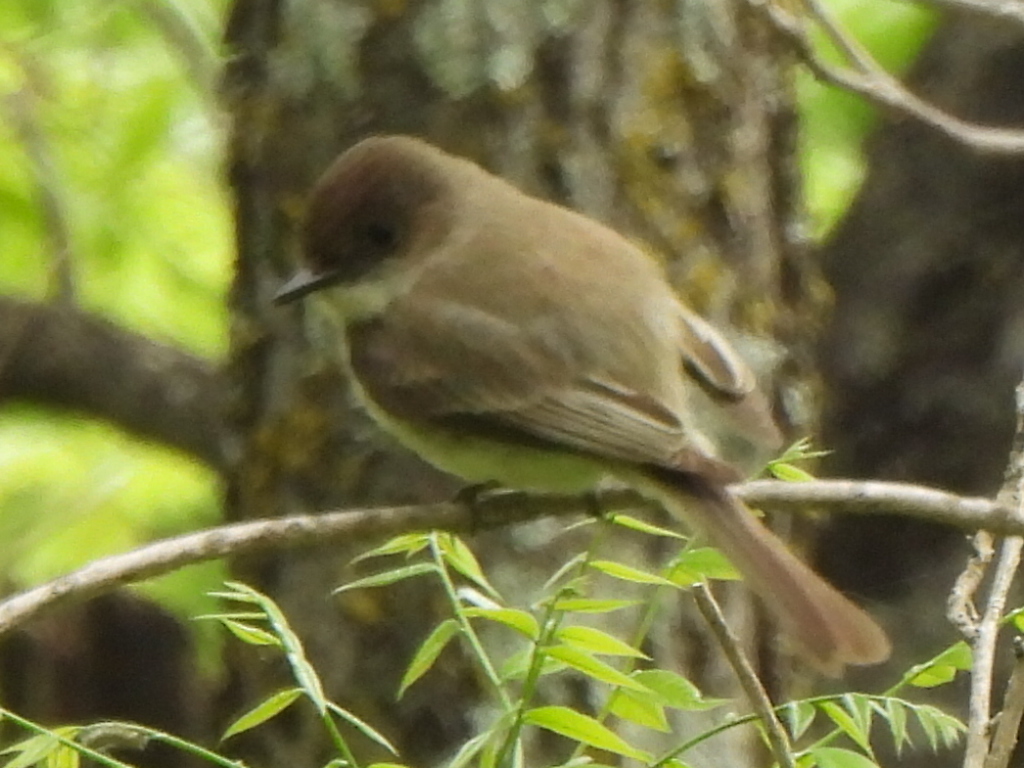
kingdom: Animalia
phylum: Chordata
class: Aves
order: Passeriformes
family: Tyrannidae
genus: Sayornis
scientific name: Sayornis phoebe
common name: Eastern phoebe
